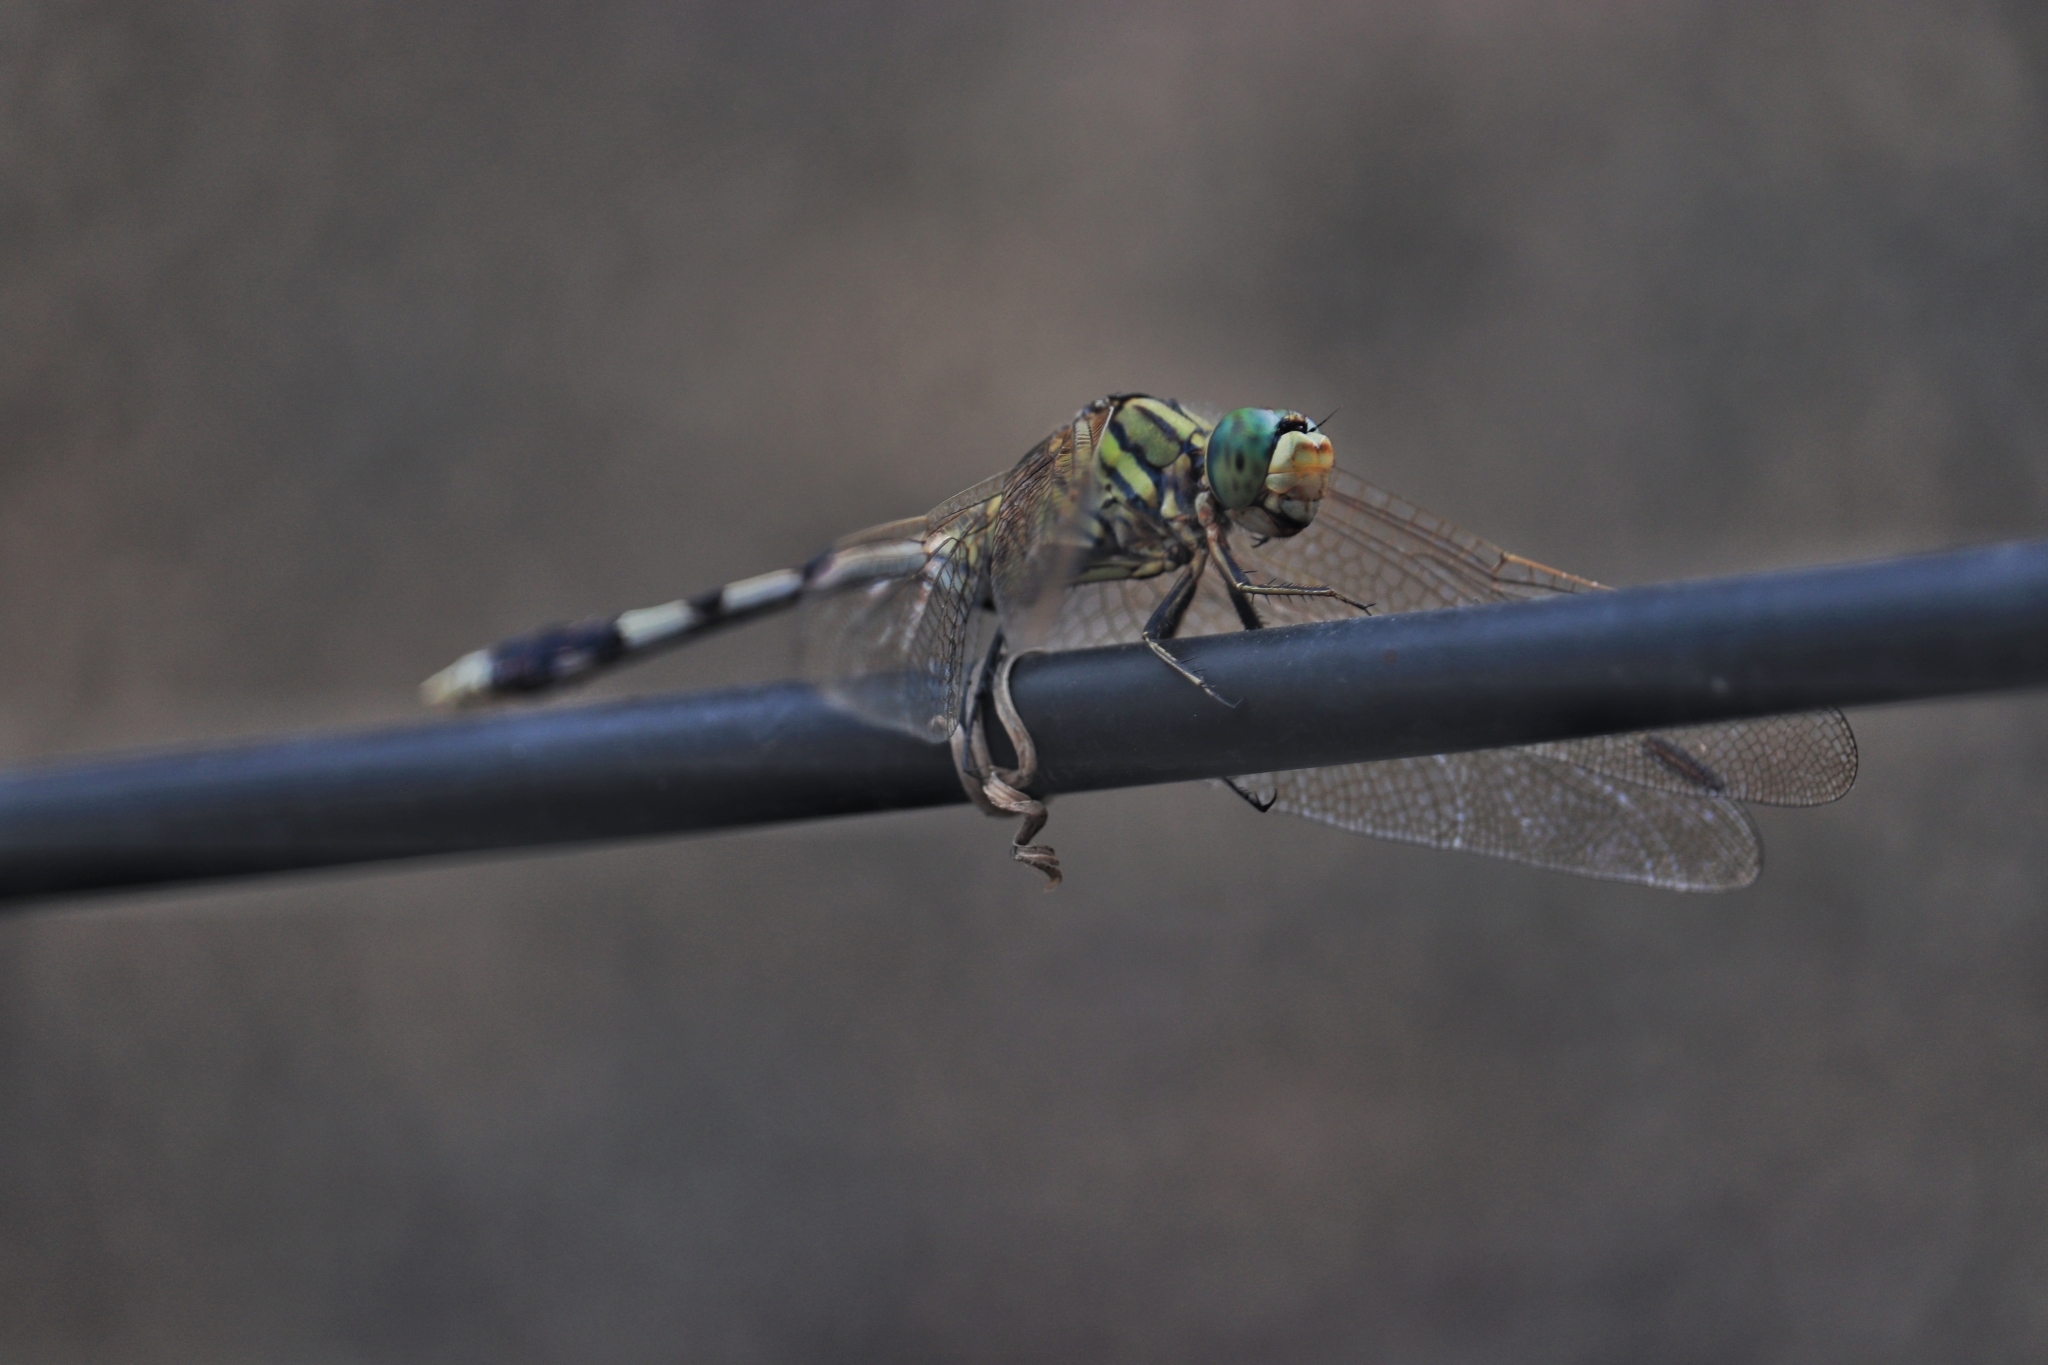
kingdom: Animalia
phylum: Arthropoda
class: Insecta
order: Odonata
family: Libellulidae
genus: Orthetrum
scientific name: Orthetrum sabina
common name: Slender skimmer
